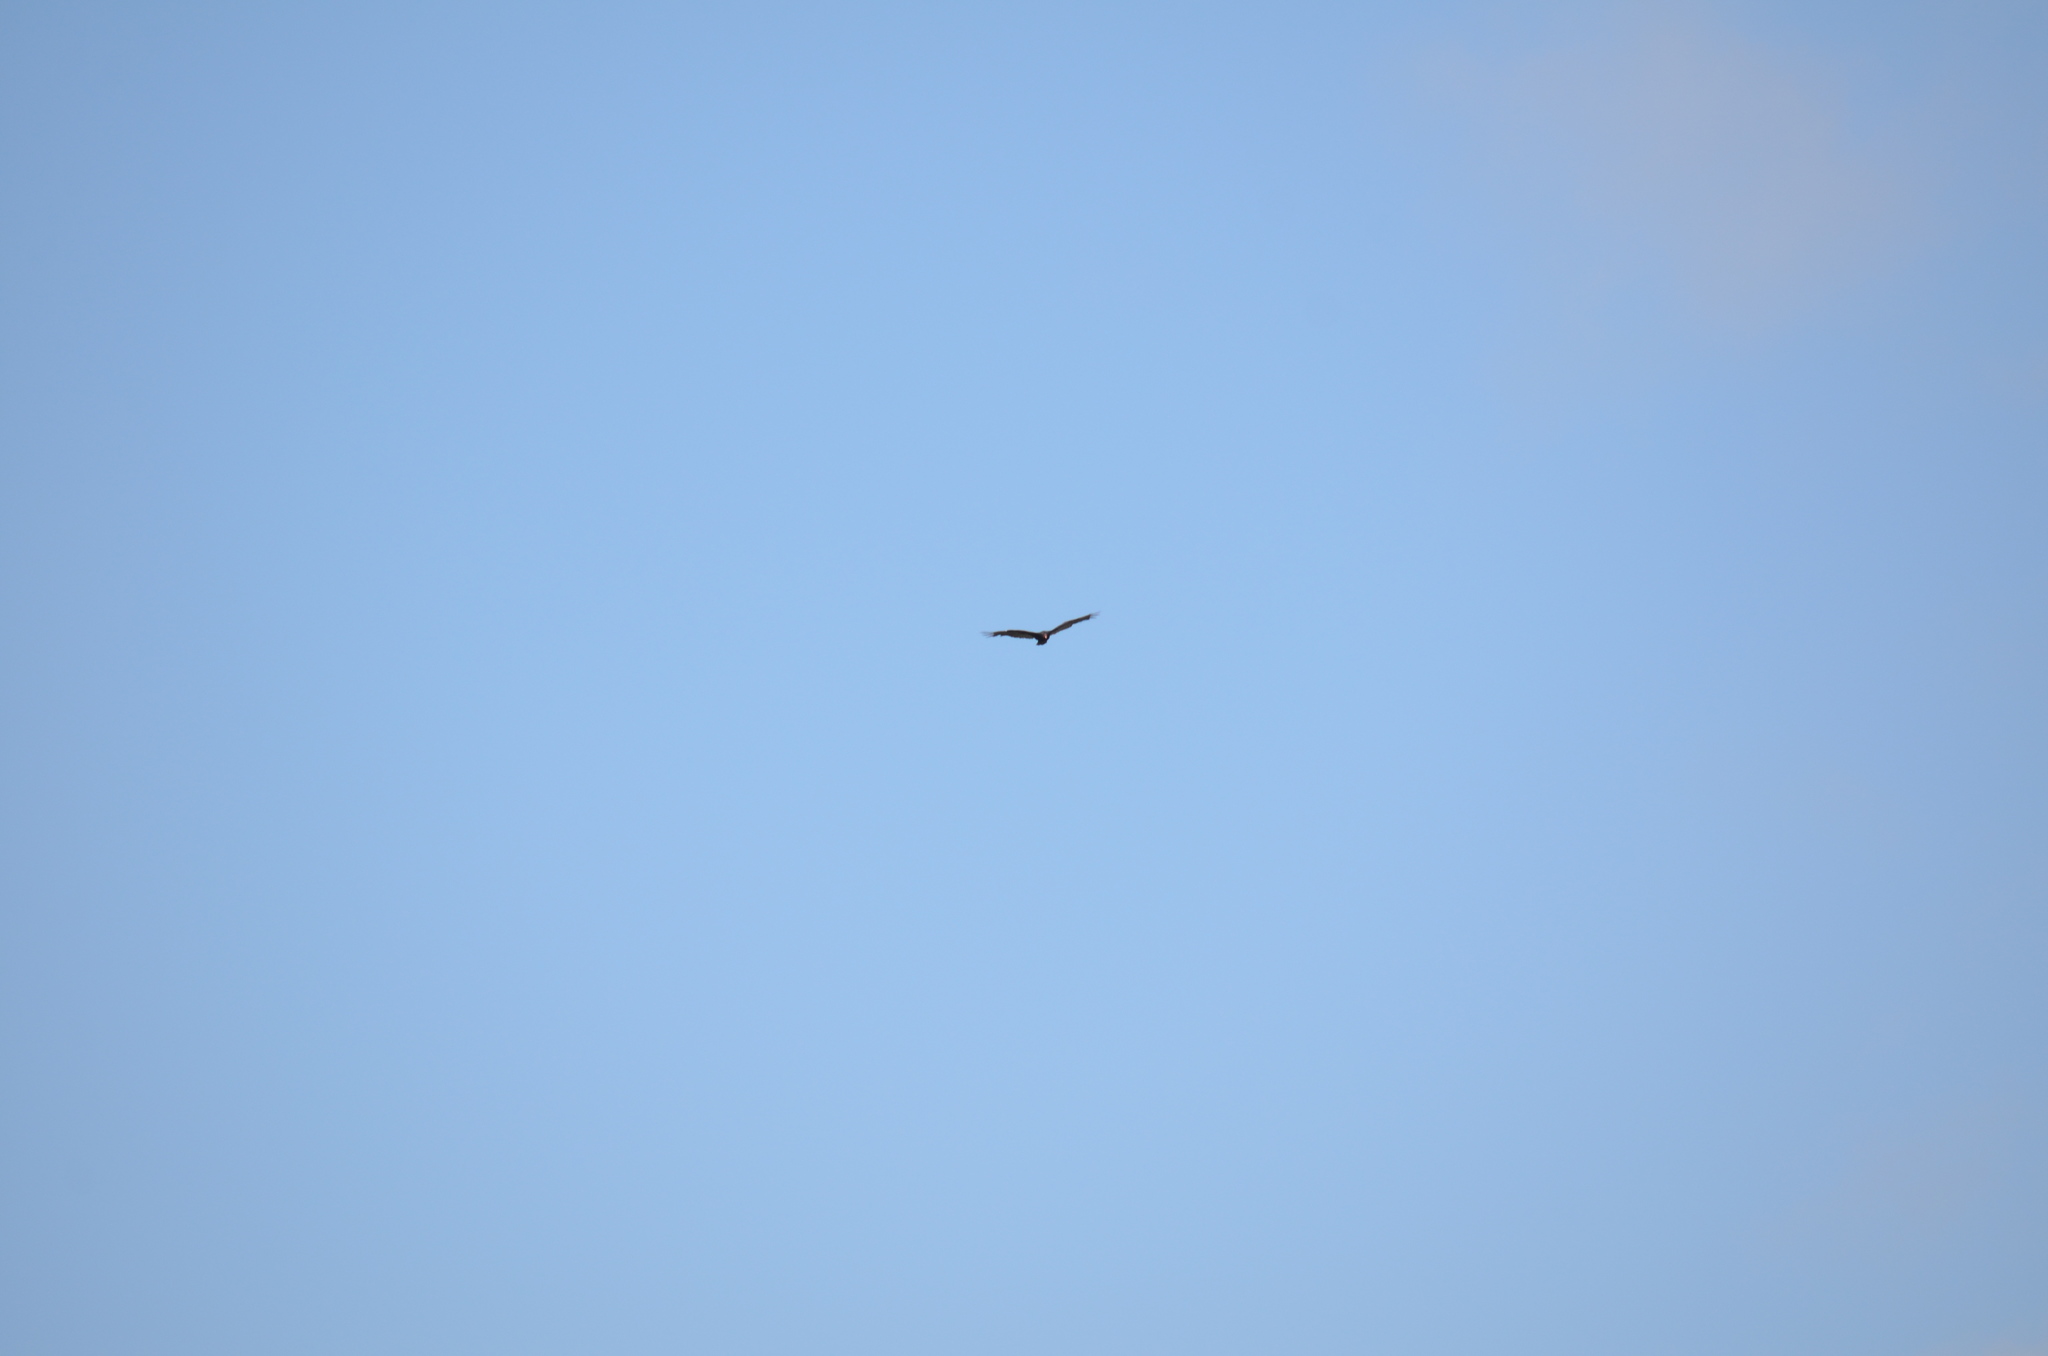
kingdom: Animalia
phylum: Chordata
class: Aves
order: Accipitriformes
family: Cathartidae
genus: Cathartes
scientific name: Cathartes aura
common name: Turkey vulture
